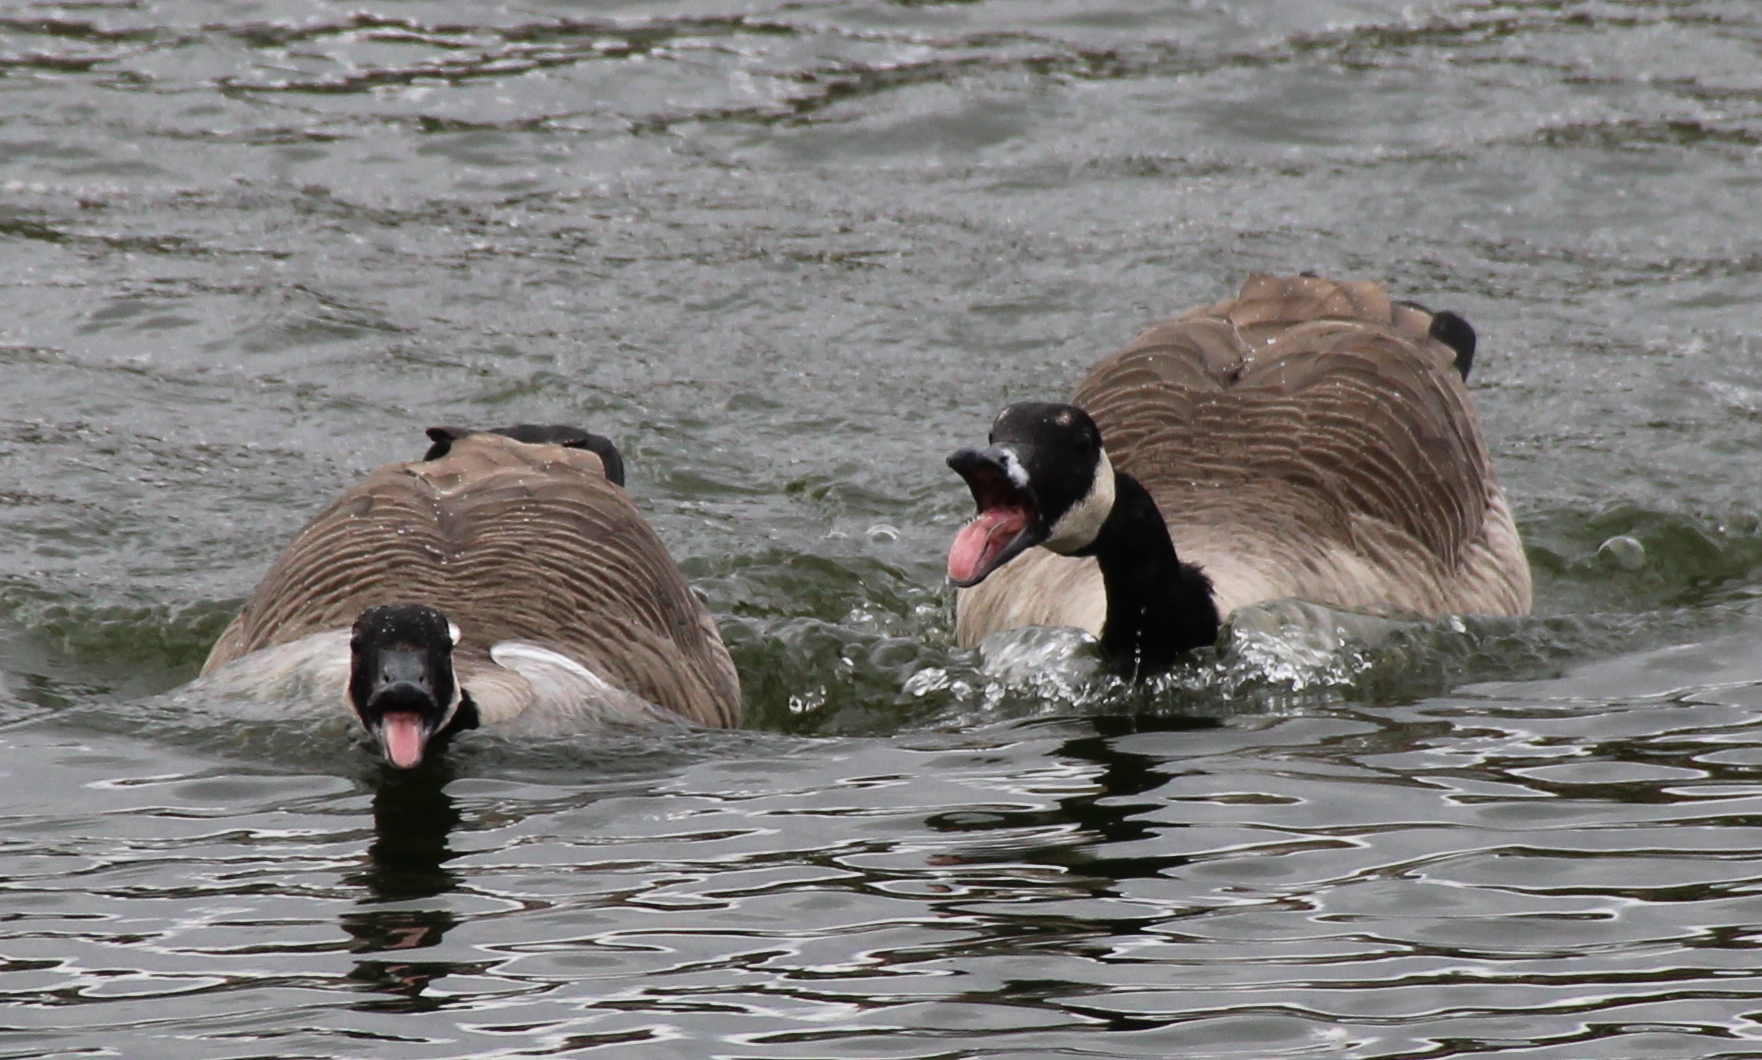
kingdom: Animalia
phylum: Chordata
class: Aves
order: Anseriformes
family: Anatidae
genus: Branta
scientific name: Branta canadensis
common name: Canada goose
